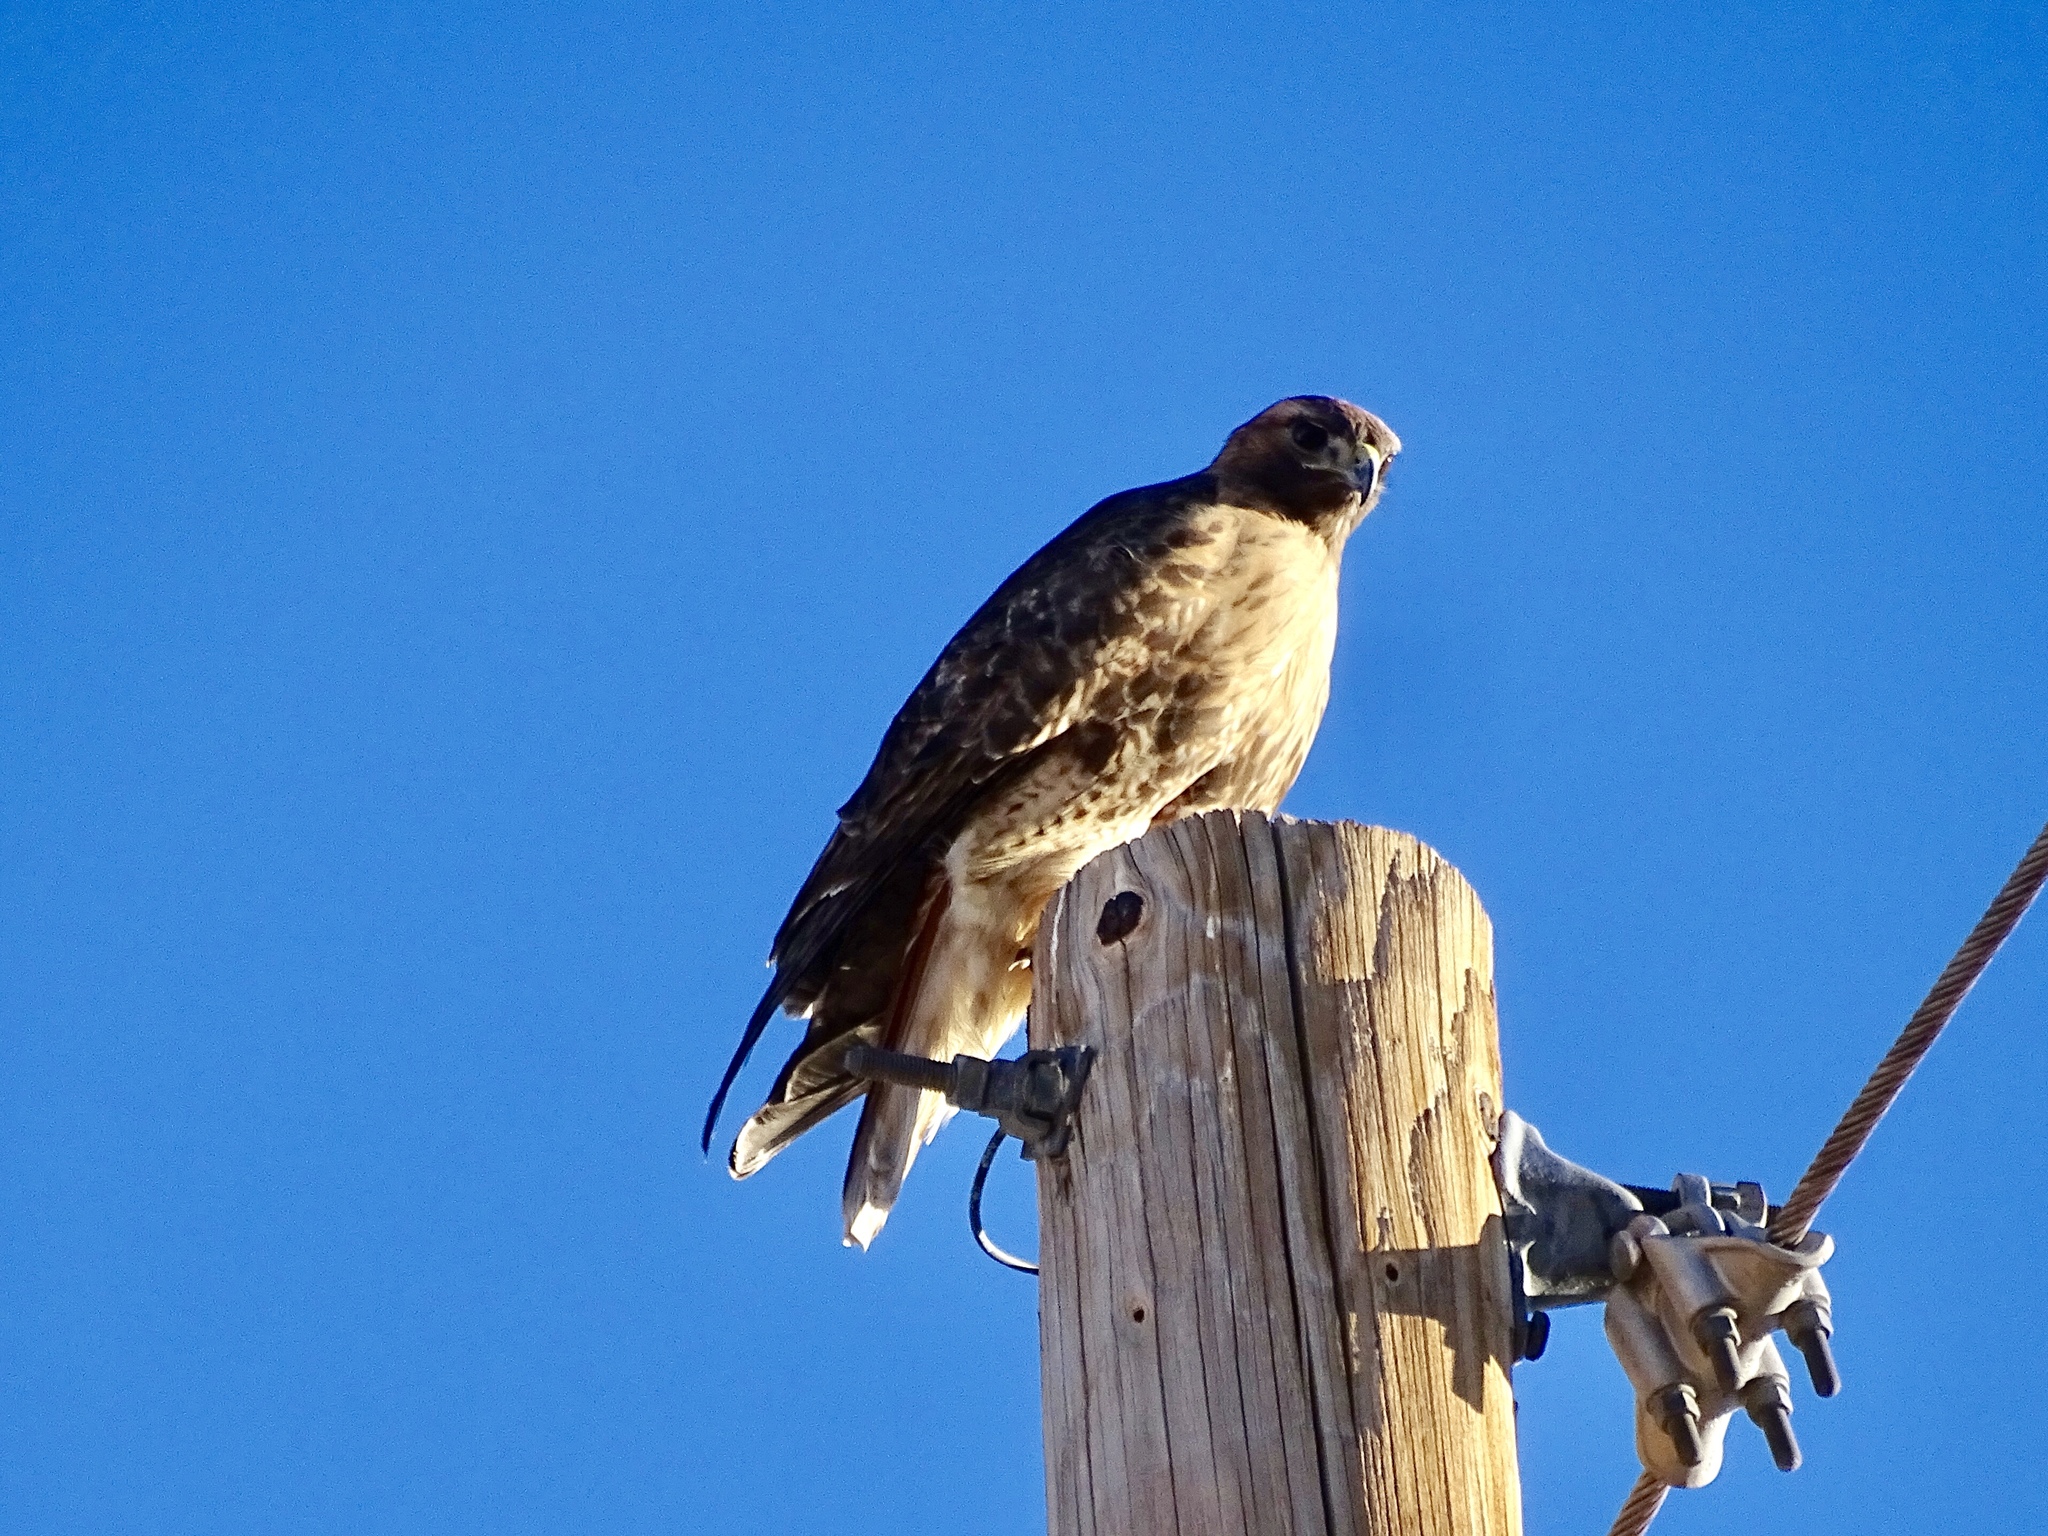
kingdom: Animalia
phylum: Chordata
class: Aves
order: Accipitriformes
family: Accipitridae
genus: Buteo
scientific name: Buteo jamaicensis
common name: Red-tailed hawk
